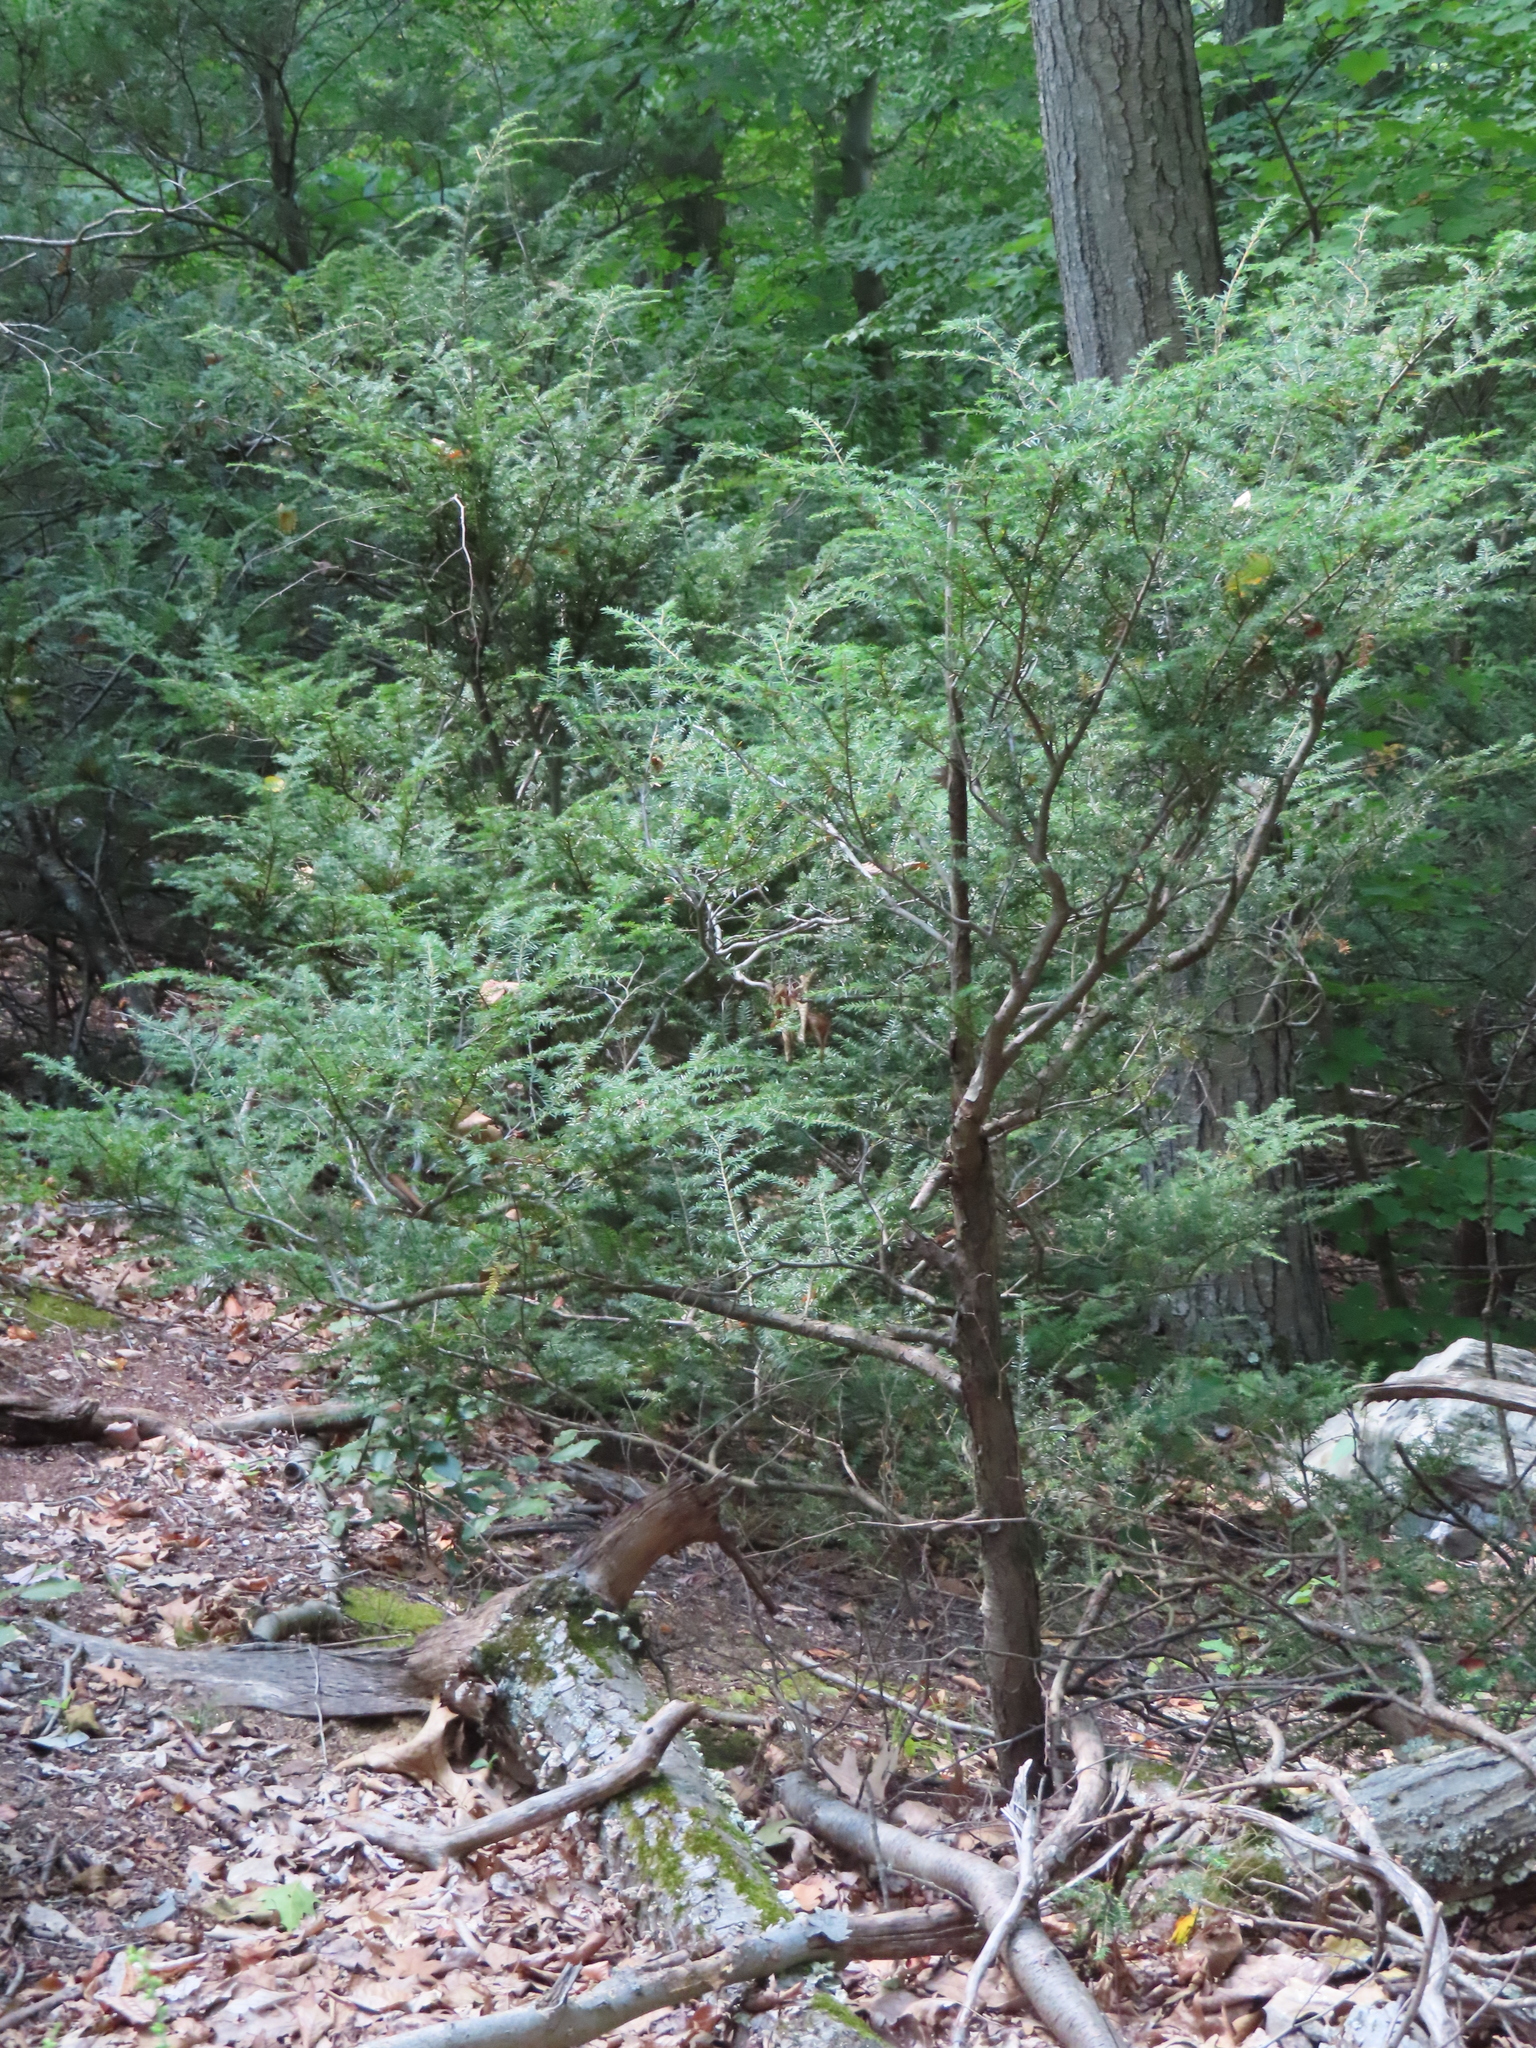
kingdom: Plantae
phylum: Tracheophyta
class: Pinopsida
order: Pinales
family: Pinaceae
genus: Tsuga
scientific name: Tsuga canadensis
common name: Eastern hemlock
